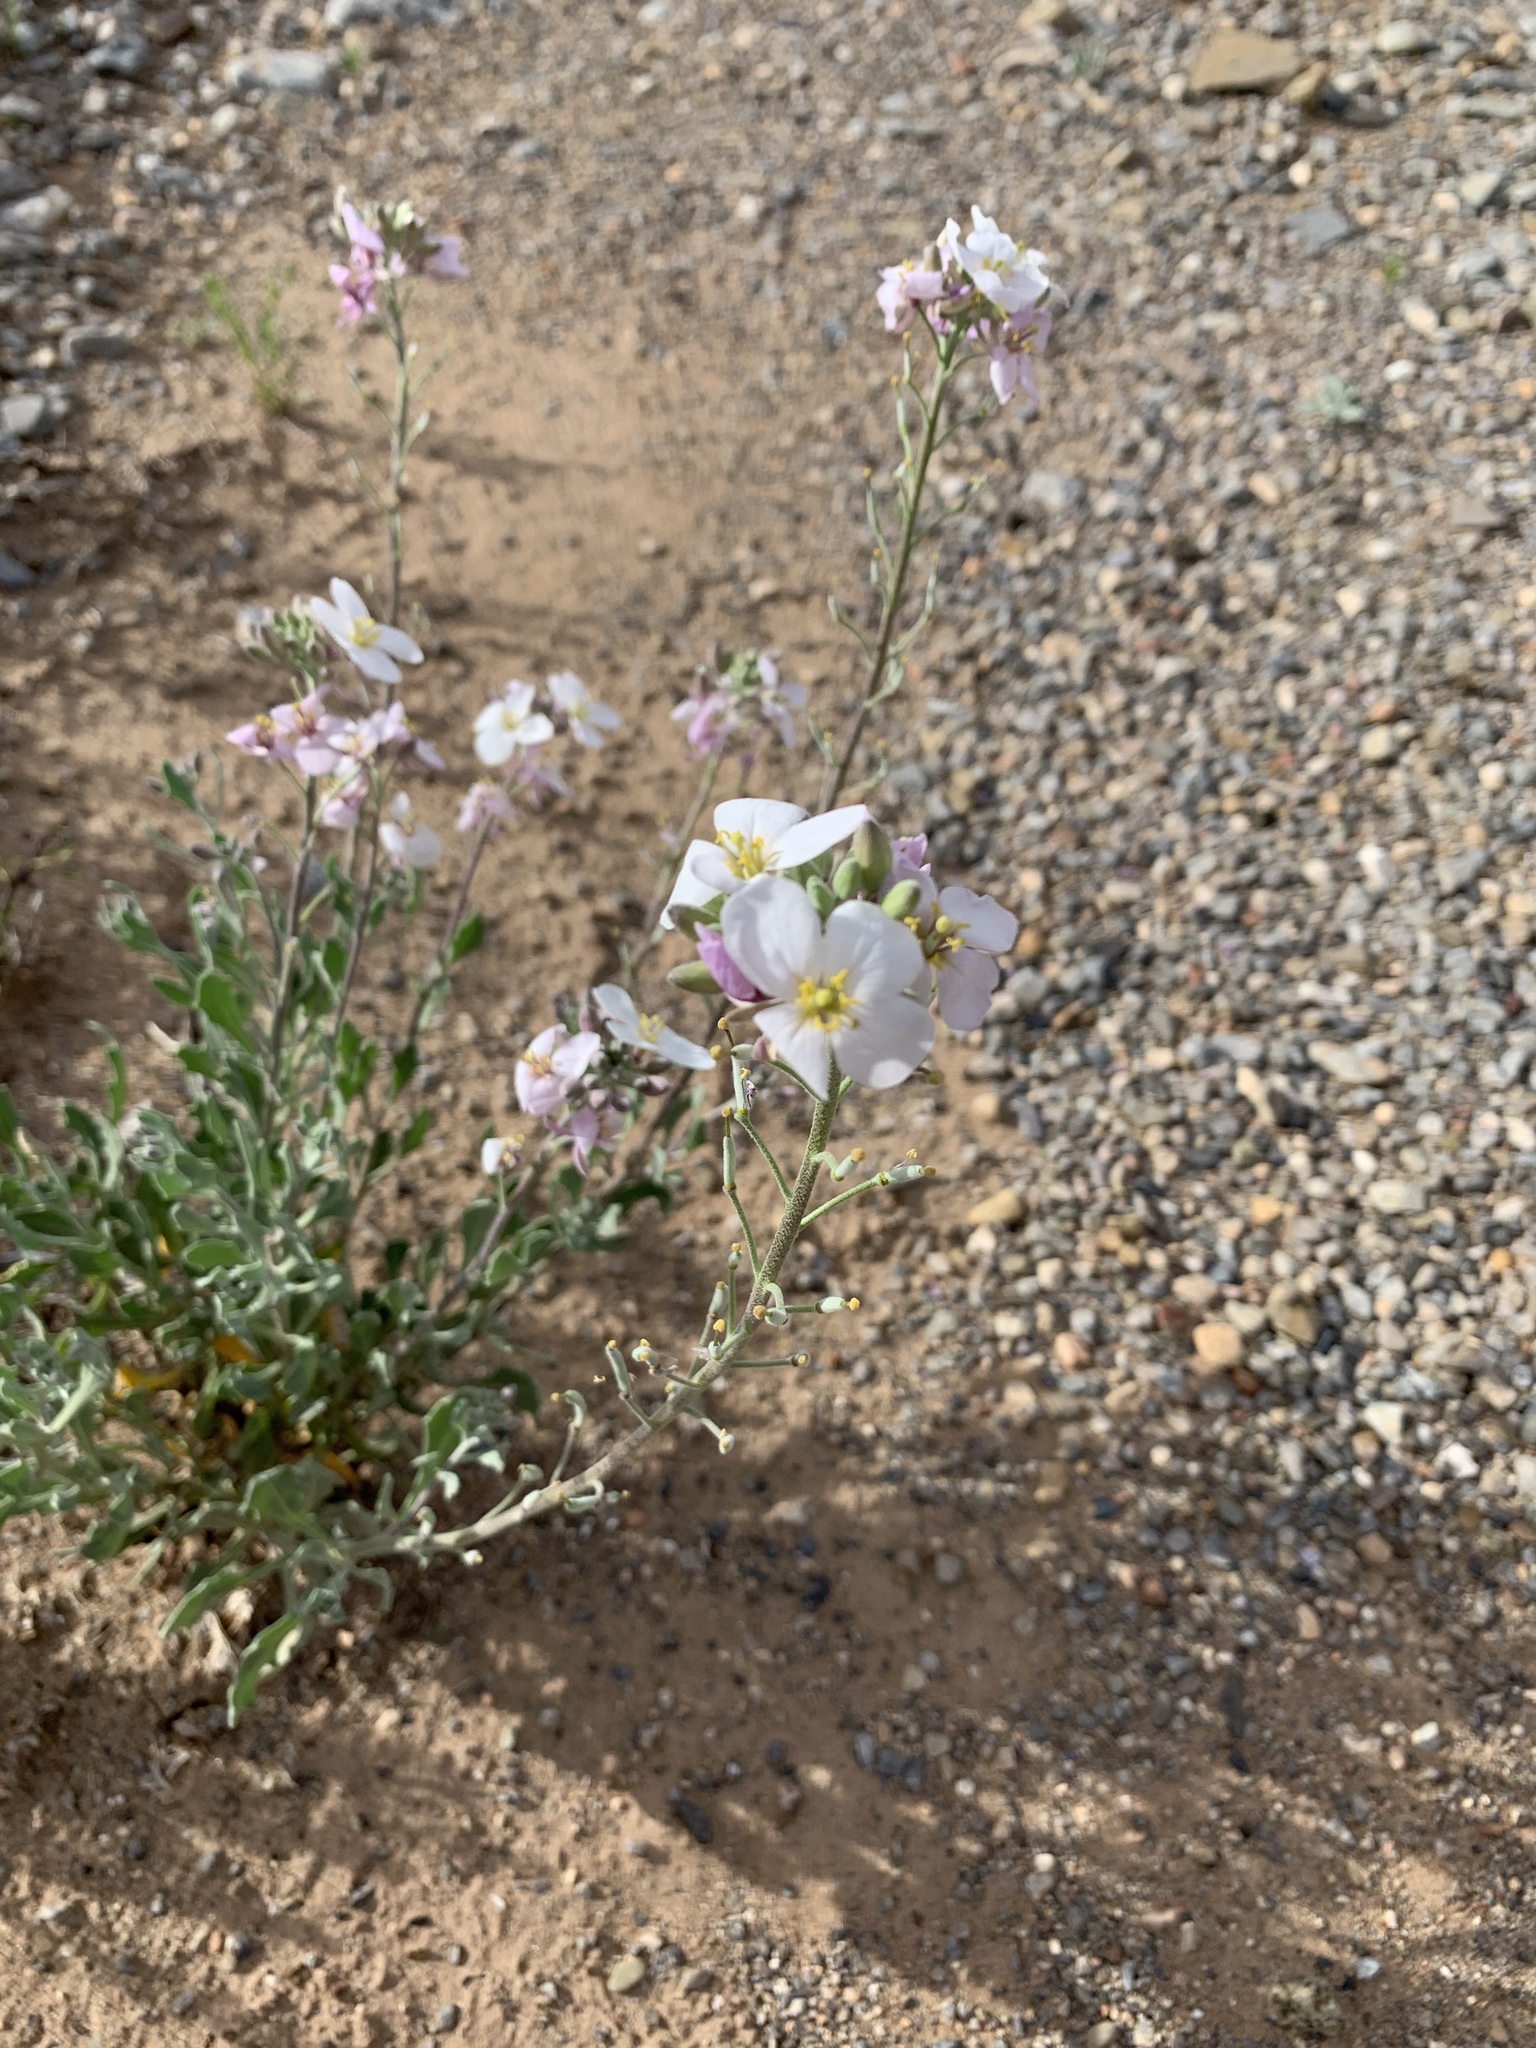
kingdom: Plantae
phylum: Tracheophyta
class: Magnoliopsida
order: Brassicales
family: Brassicaceae
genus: Nerisyrenia
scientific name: Nerisyrenia camporum
